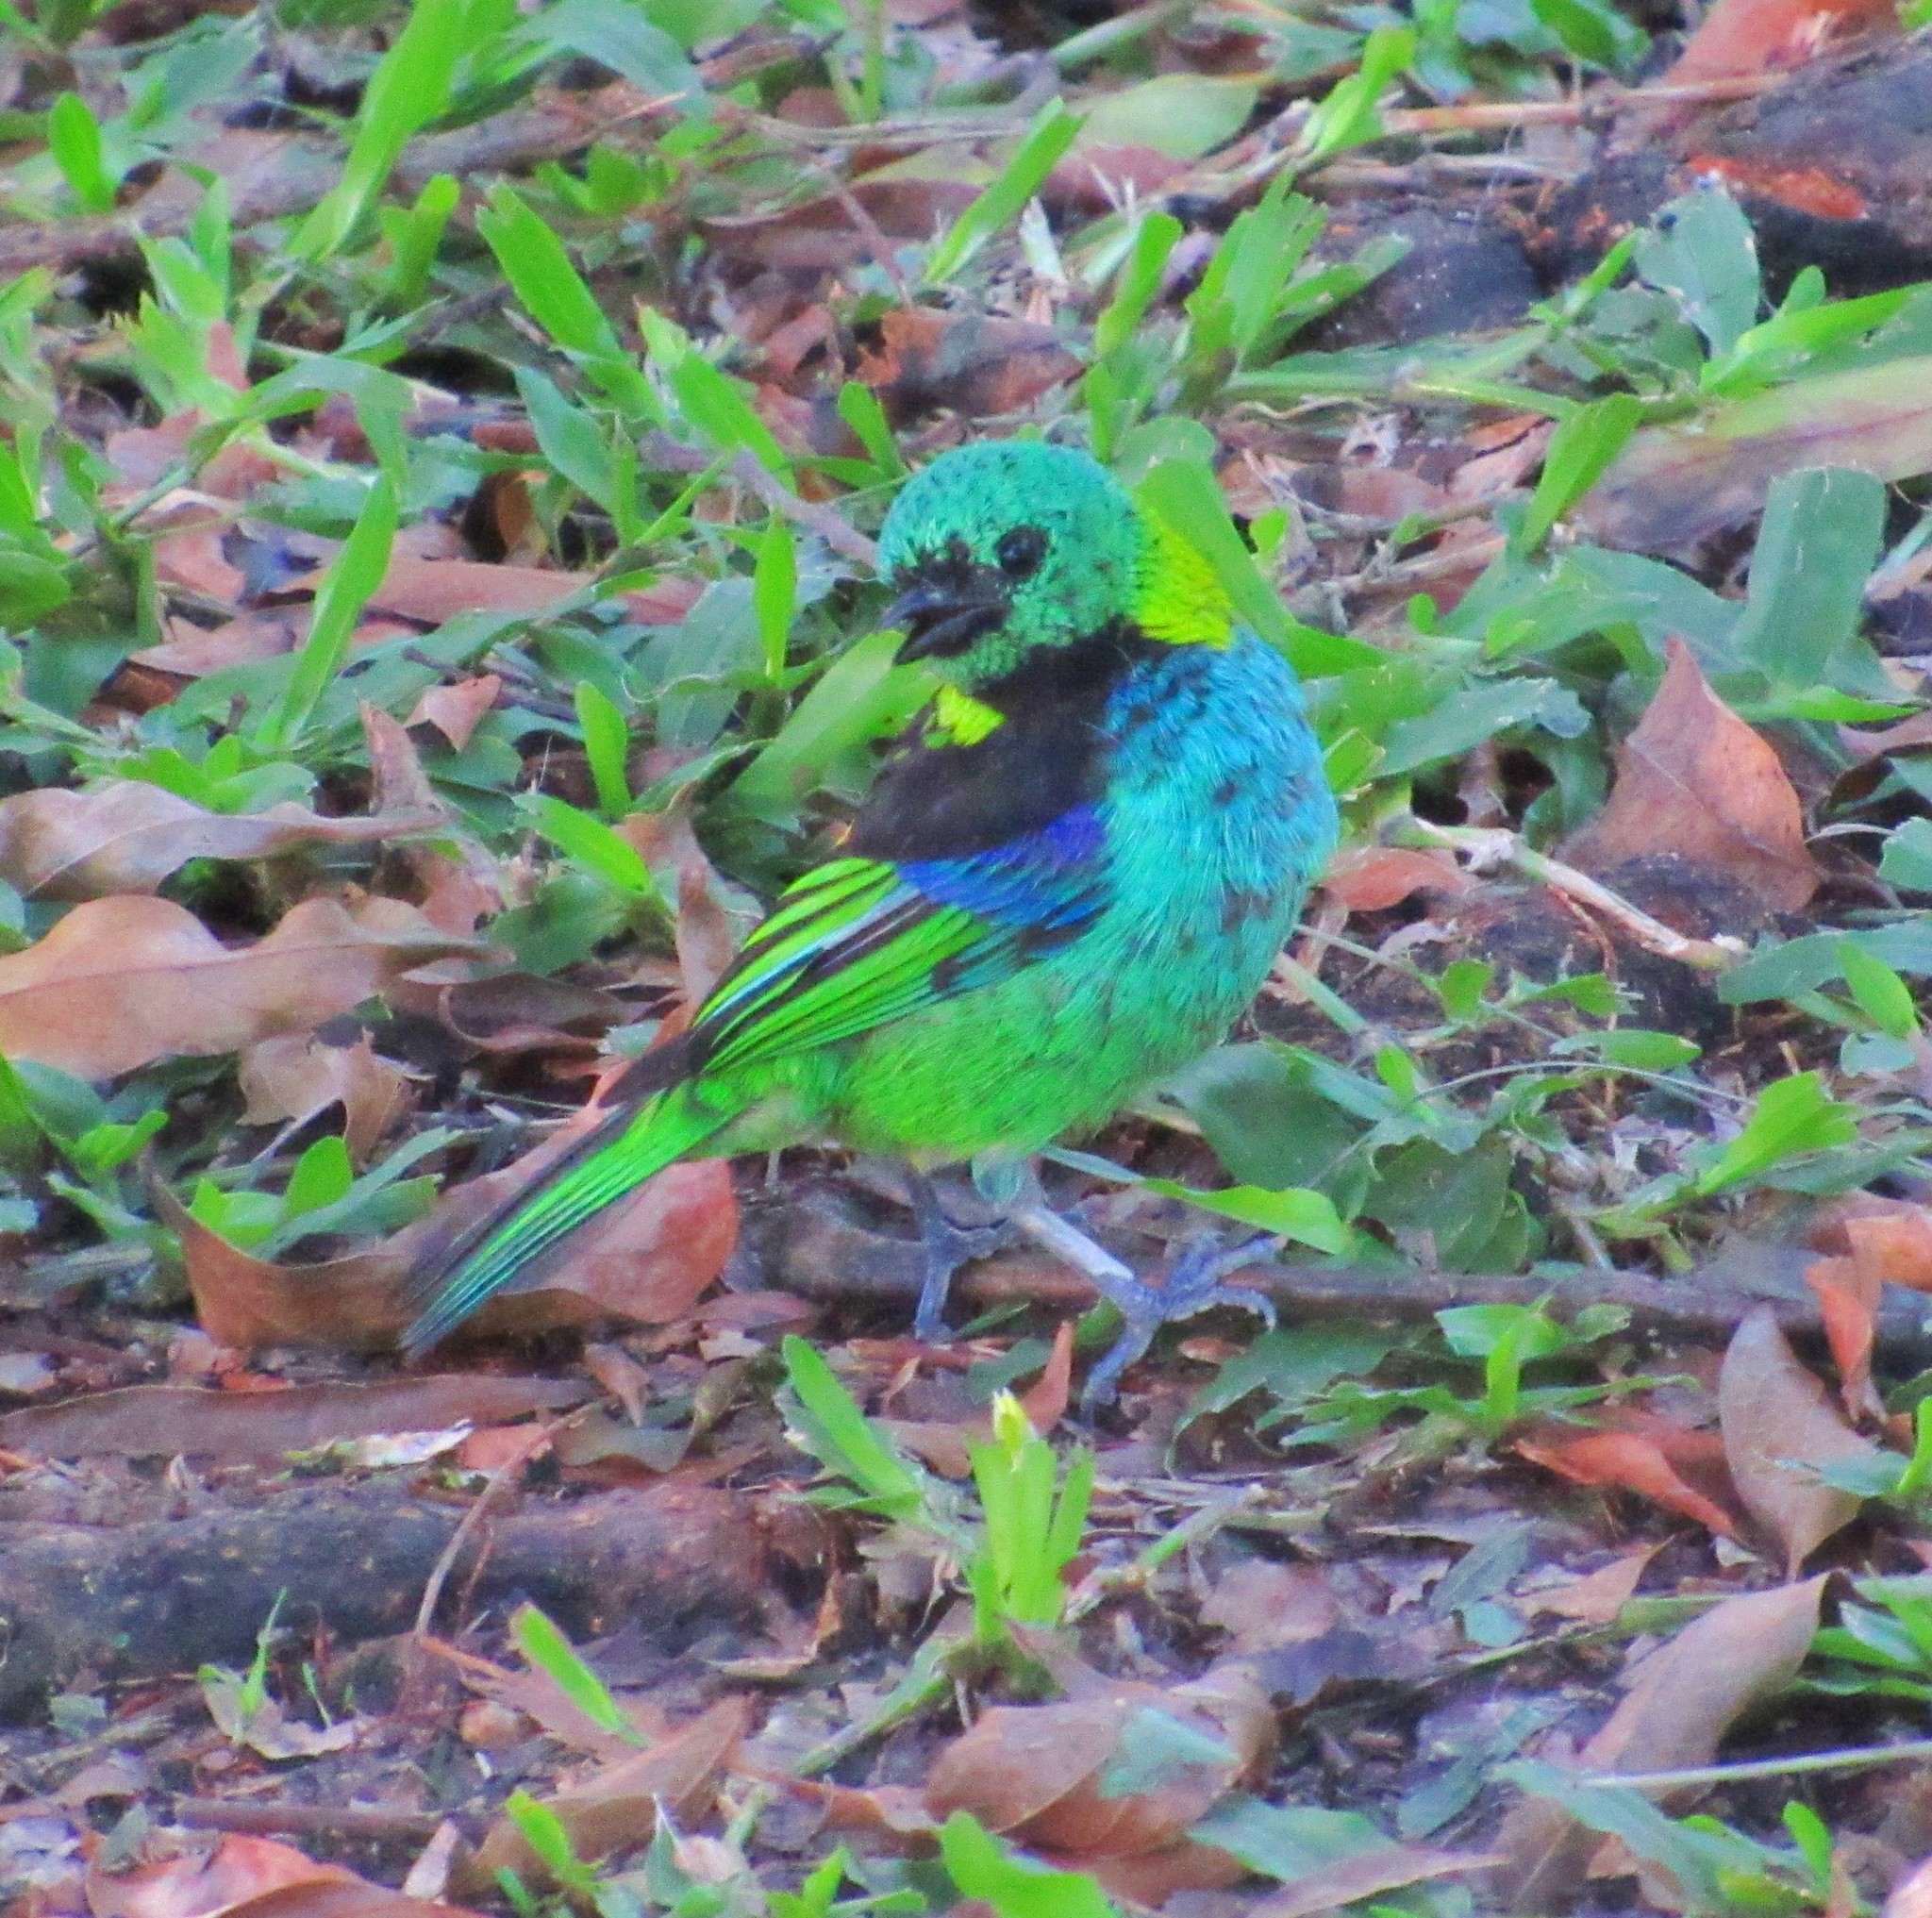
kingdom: Animalia
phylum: Chordata
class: Aves
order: Passeriformes
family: Thraupidae
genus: Tangara
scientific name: Tangara seledon
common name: Green-headed tanager
